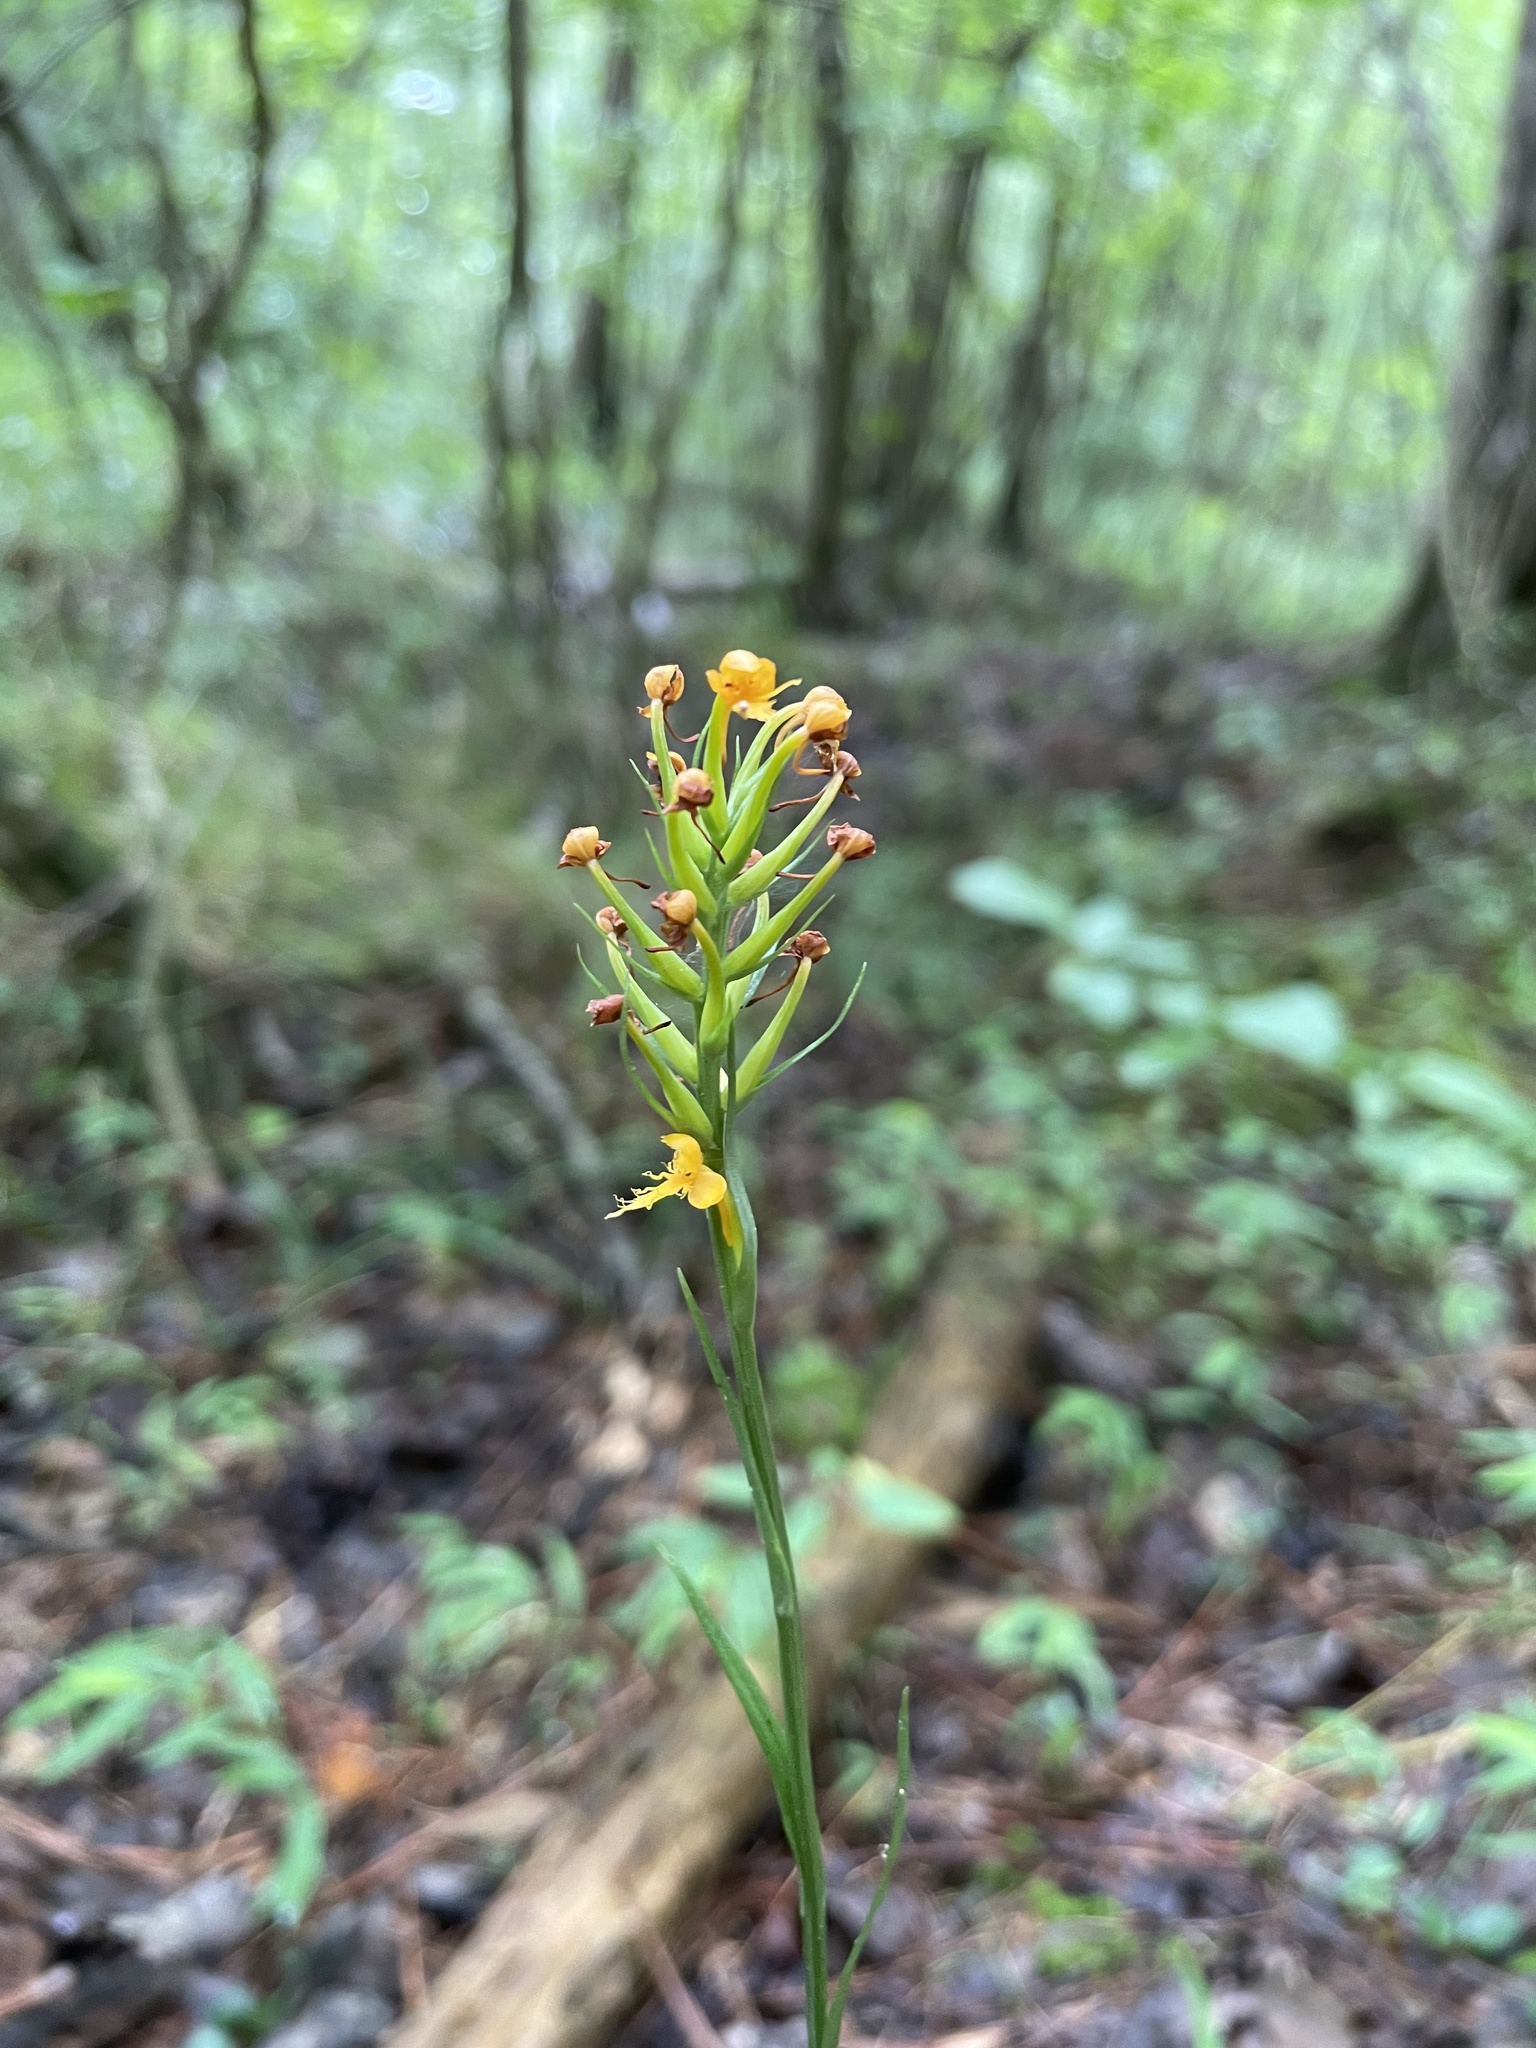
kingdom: Plantae
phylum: Tracheophyta
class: Liliopsida
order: Asparagales
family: Orchidaceae
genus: Platanthera
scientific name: Platanthera cristata
